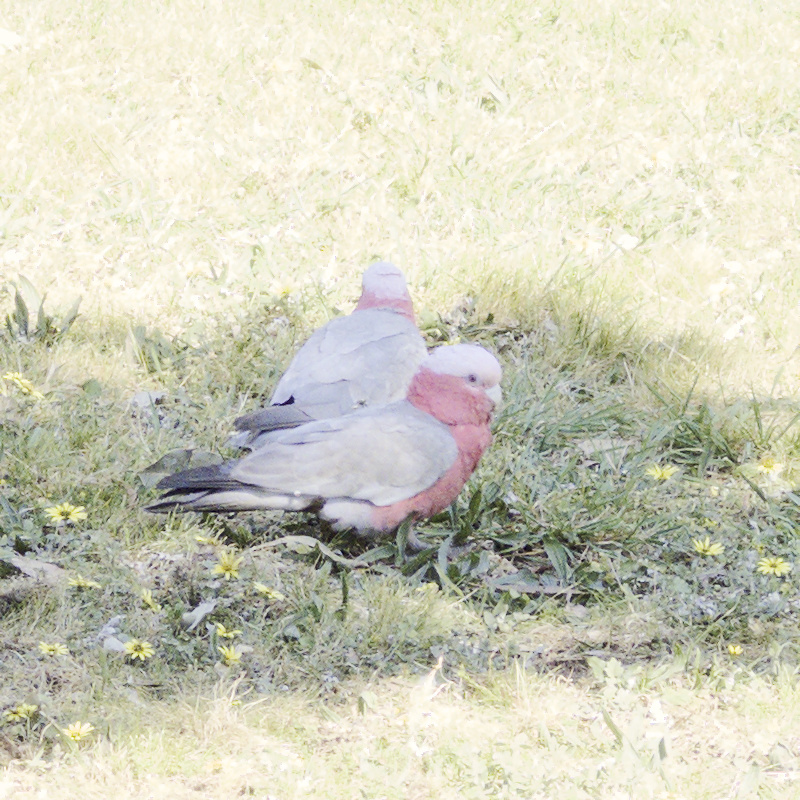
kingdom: Animalia
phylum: Chordata
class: Aves
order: Psittaciformes
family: Psittacidae
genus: Eolophus
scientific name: Eolophus roseicapilla
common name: Galah
